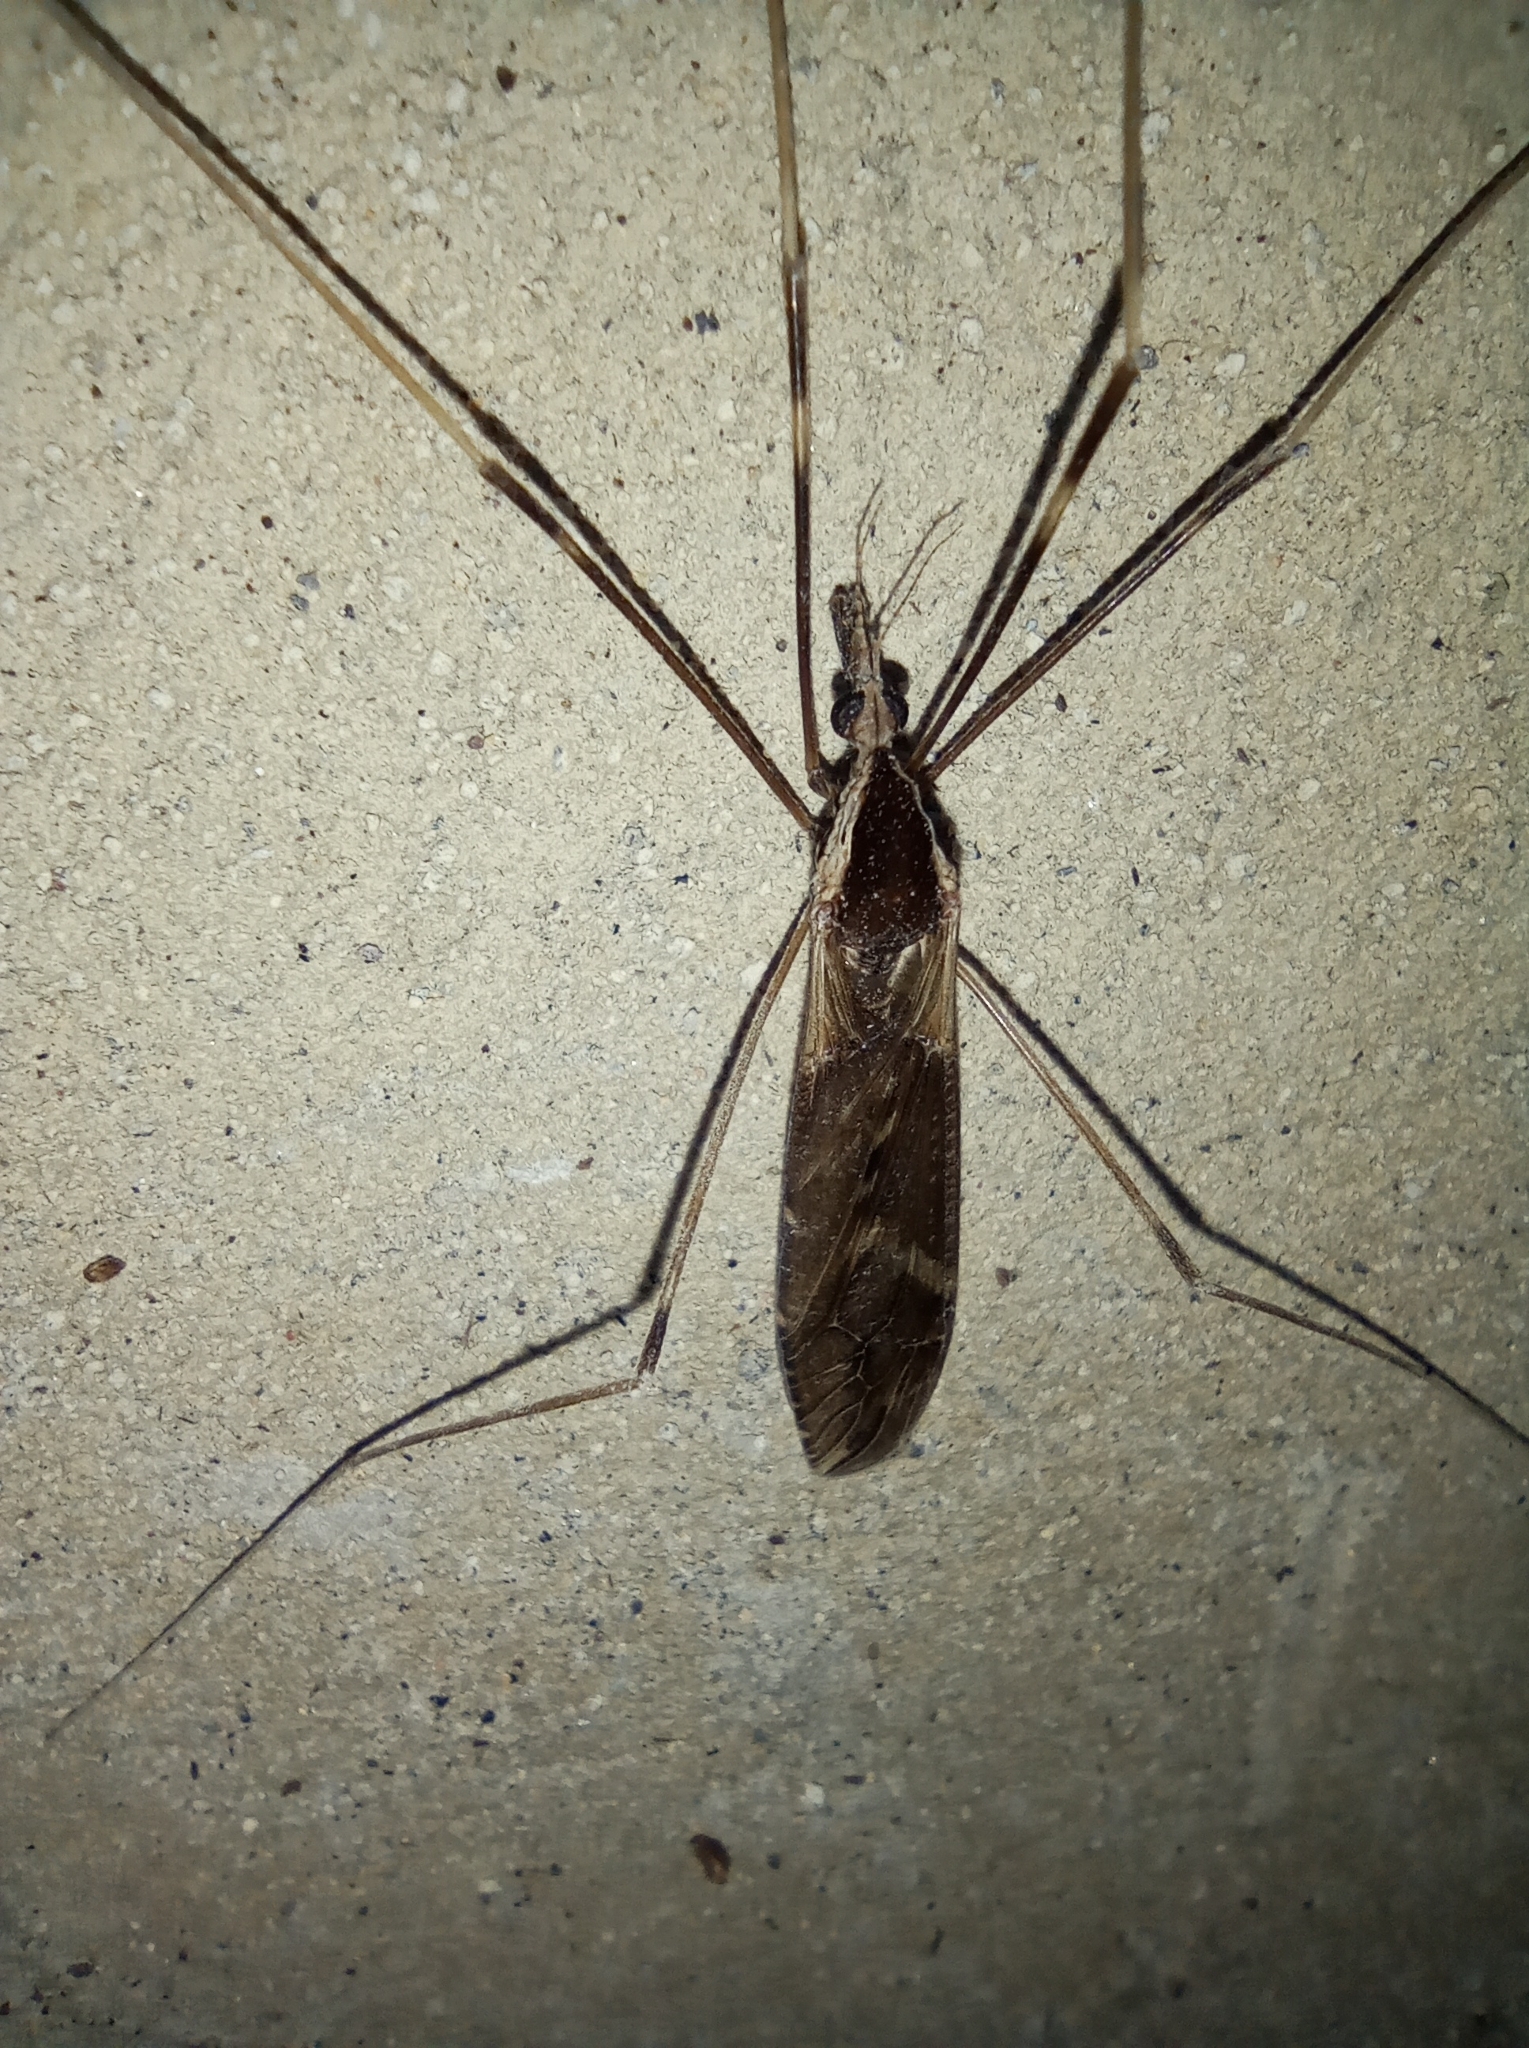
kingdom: Animalia
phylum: Arthropoda
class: Insecta
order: Diptera
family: Tipulidae
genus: Tipula
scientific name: Tipula obliquefasciata
